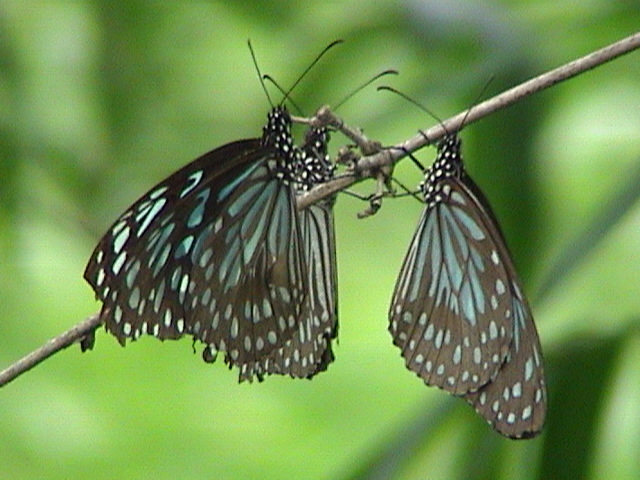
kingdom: Animalia
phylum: Arthropoda
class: Insecta
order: Lepidoptera
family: Nymphalidae
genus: Tirumala
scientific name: Tirumala septentrionis
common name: Dark blue tiger butterfly
